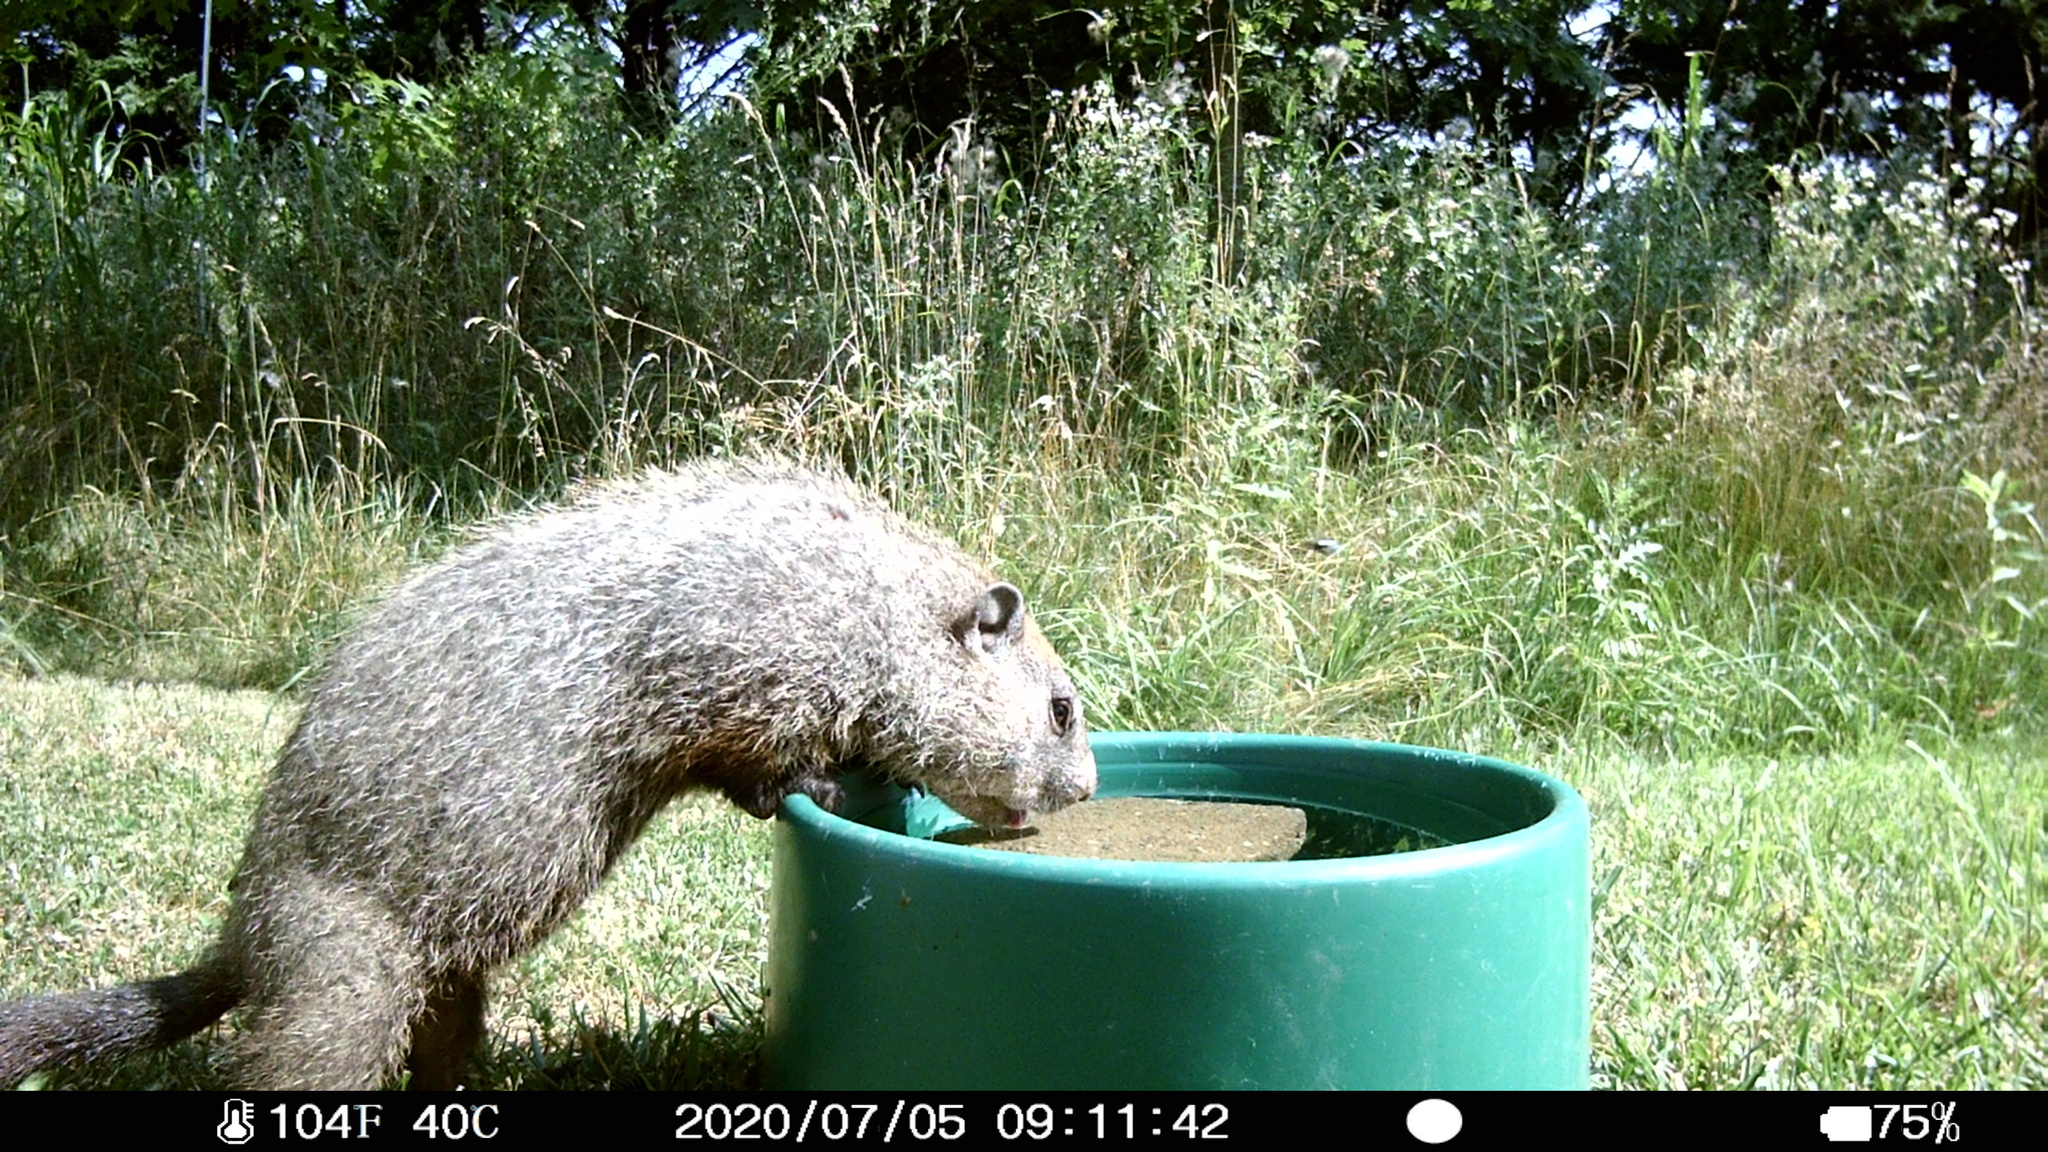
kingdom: Animalia
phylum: Chordata
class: Mammalia
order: Rodentia
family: Sciuridae
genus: Marmota
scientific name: Marmota monax
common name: Groundhog
